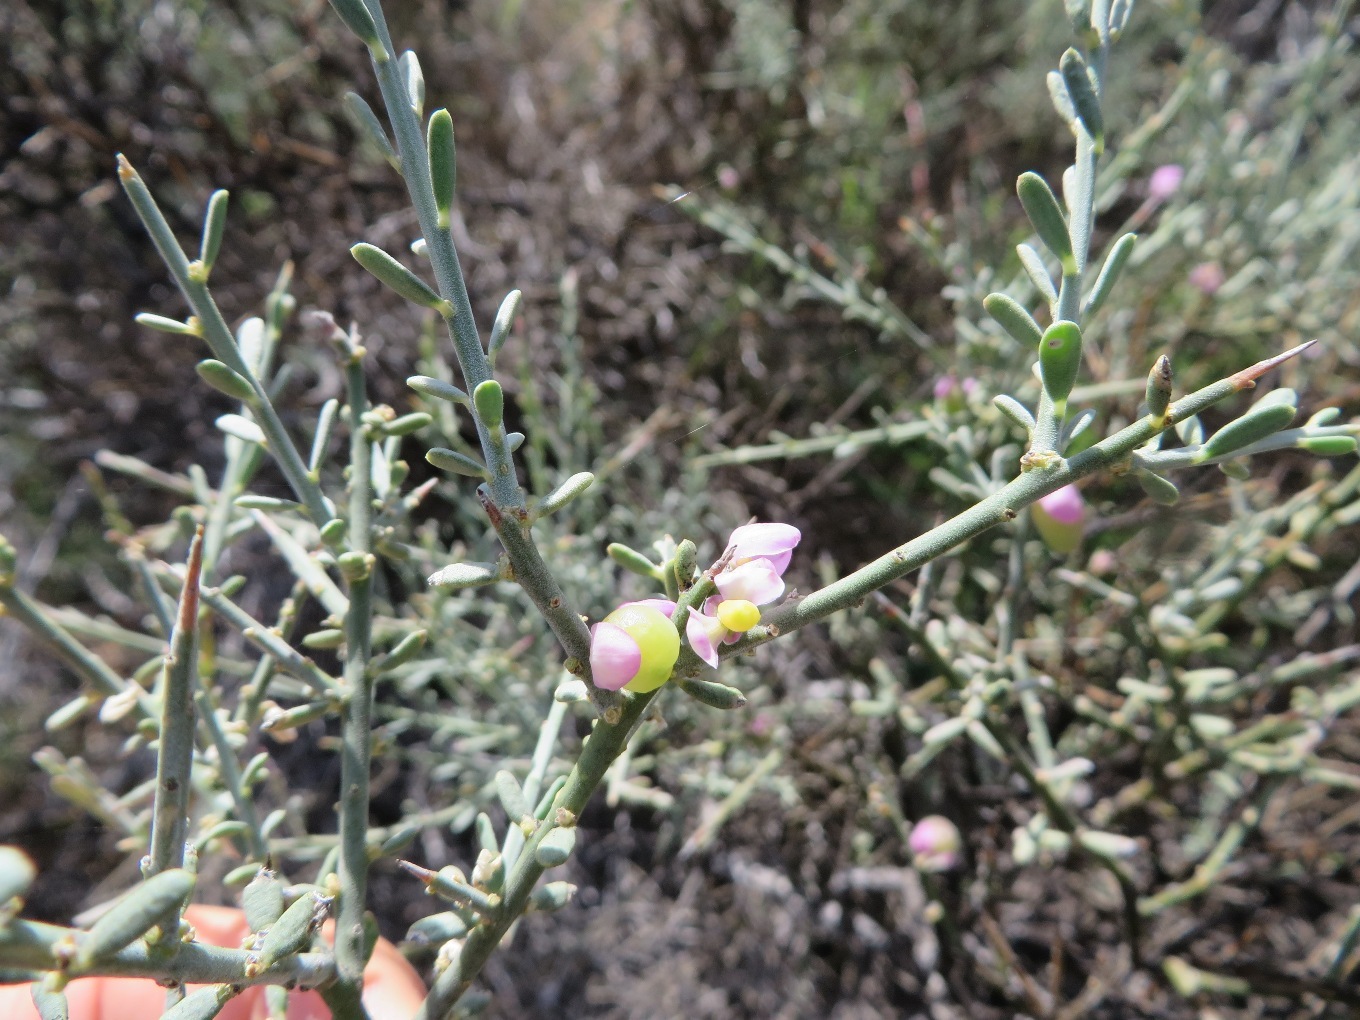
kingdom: Plantae
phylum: Tracheophyta
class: Magnoliopsida
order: Fabales
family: Polygalaceae
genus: Muraltia
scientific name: Muraltia spinosa
